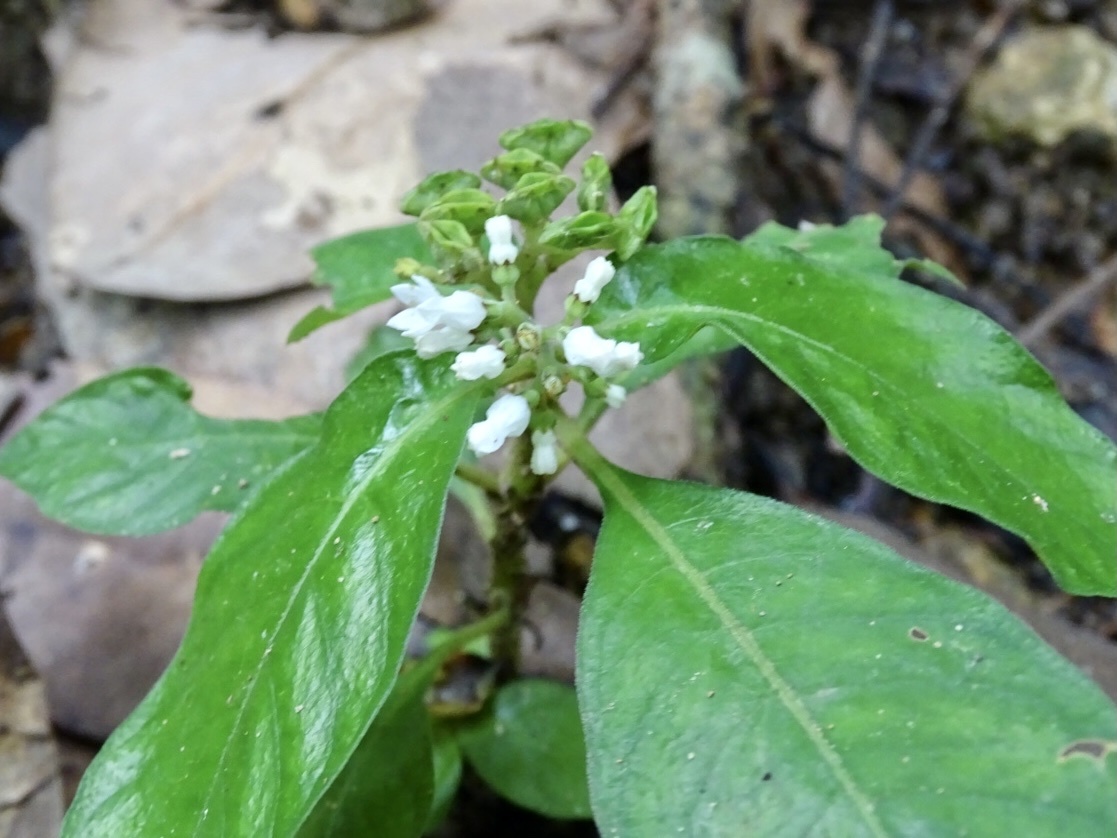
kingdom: Plantae
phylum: Tracheophyta
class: Magnoliopsida
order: Gentianales
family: Rubiaceae
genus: Ophiorrhiza
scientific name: Ophiorrhiza pumila
